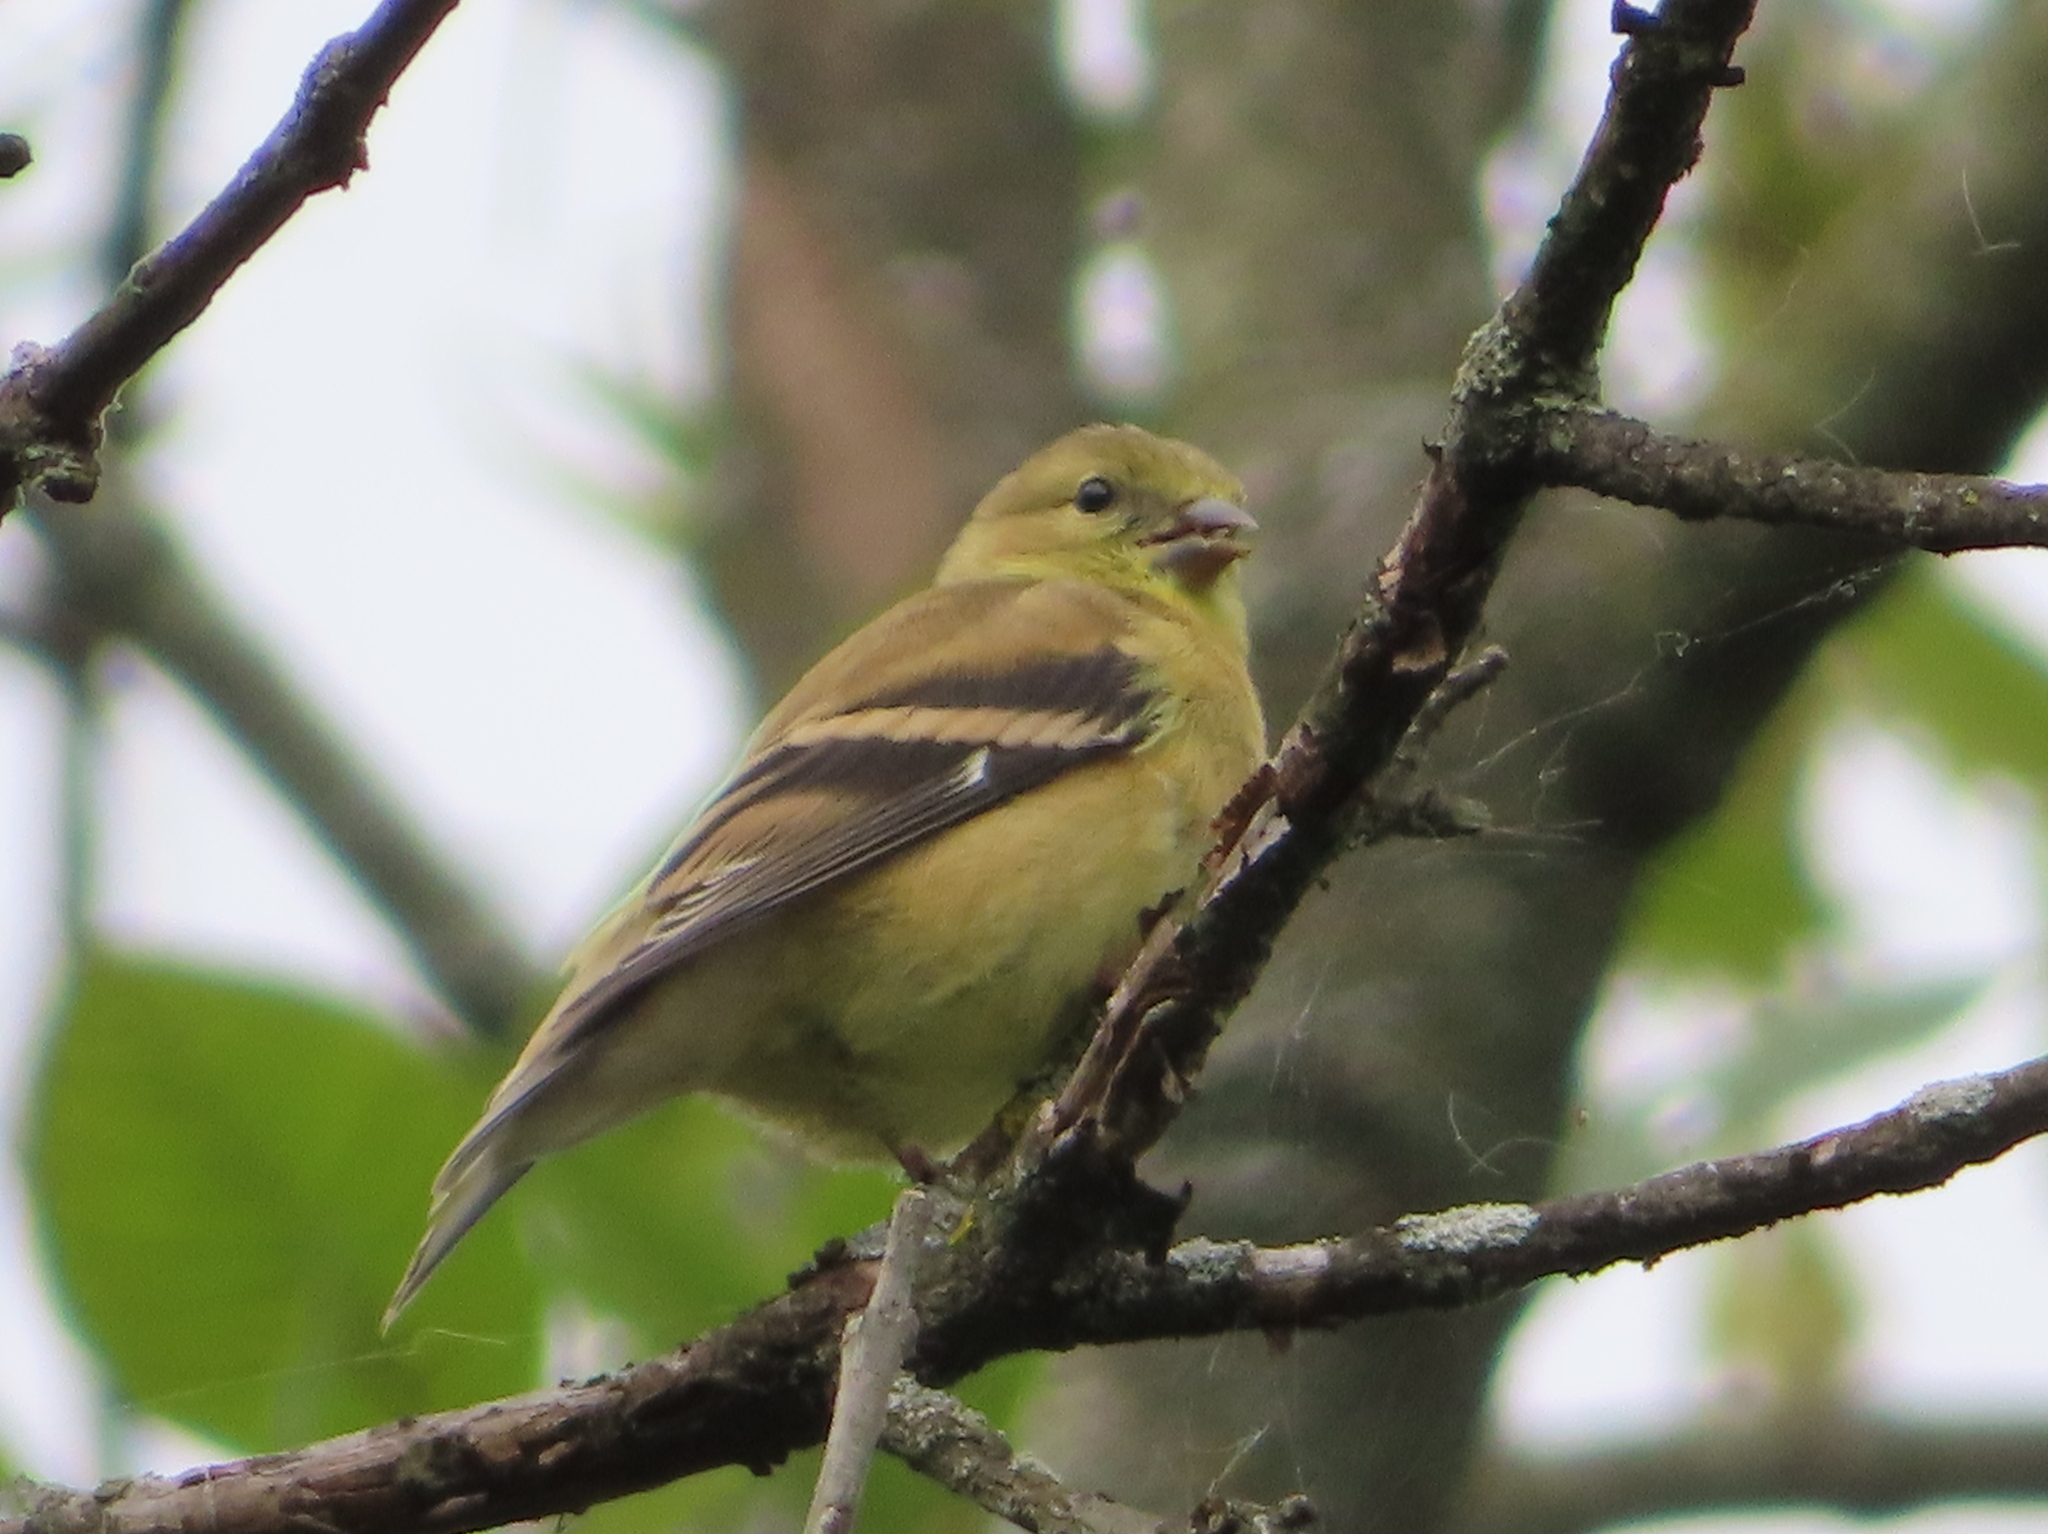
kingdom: Animalia
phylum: Chordata
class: Aves
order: Passeriformes
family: Fringillidae
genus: Spinus
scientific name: Spinus tristis
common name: American goldfinch
